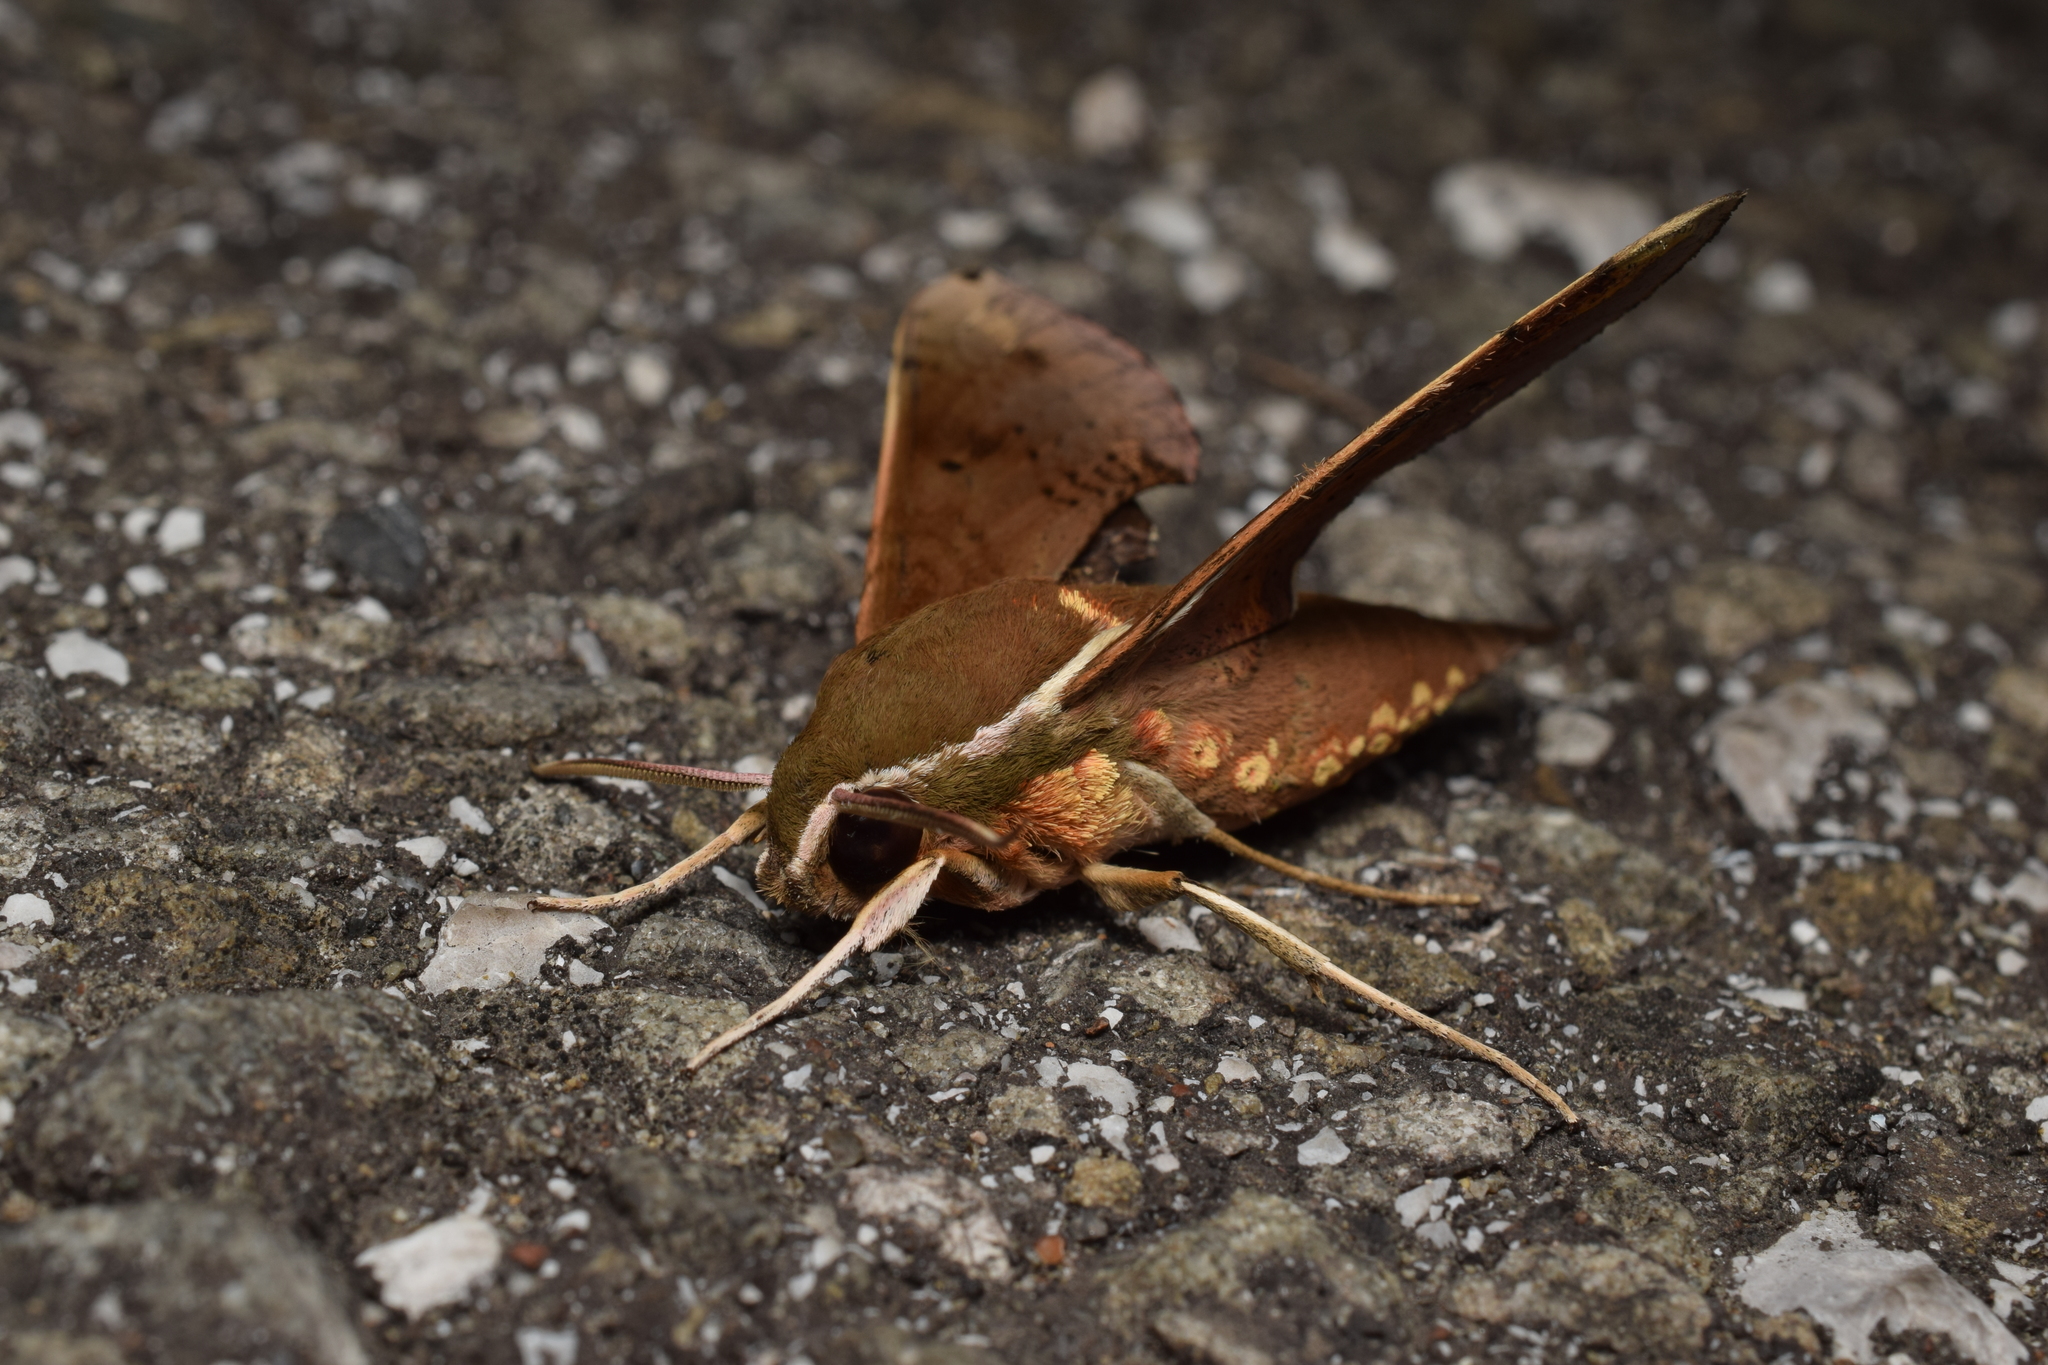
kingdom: Animalia
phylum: Arthropoda
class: Insecta
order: Lepidoptera
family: Sphingidae
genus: Rhagastis
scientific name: Rhagastis mongoliana
